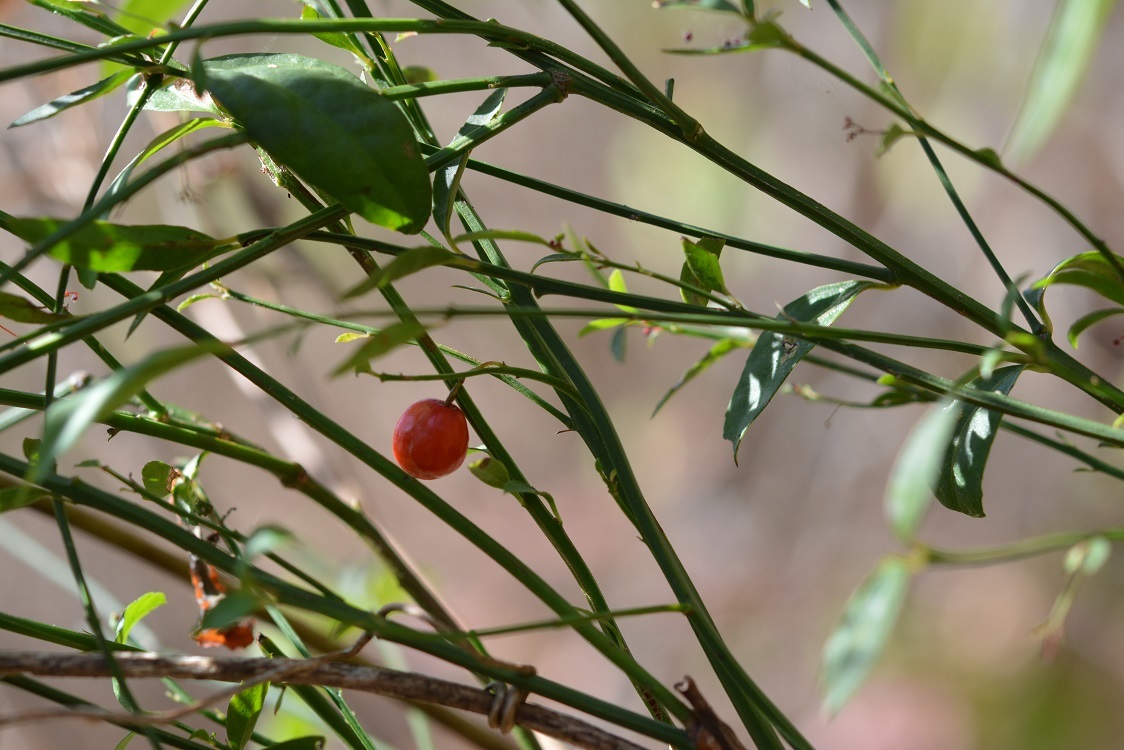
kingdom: Plantae
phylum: Tracheophyta
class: Magnoliopsida
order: Celastrales
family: Celastraceae
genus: Crossopetalum
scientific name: Crossopetalum uragoga
